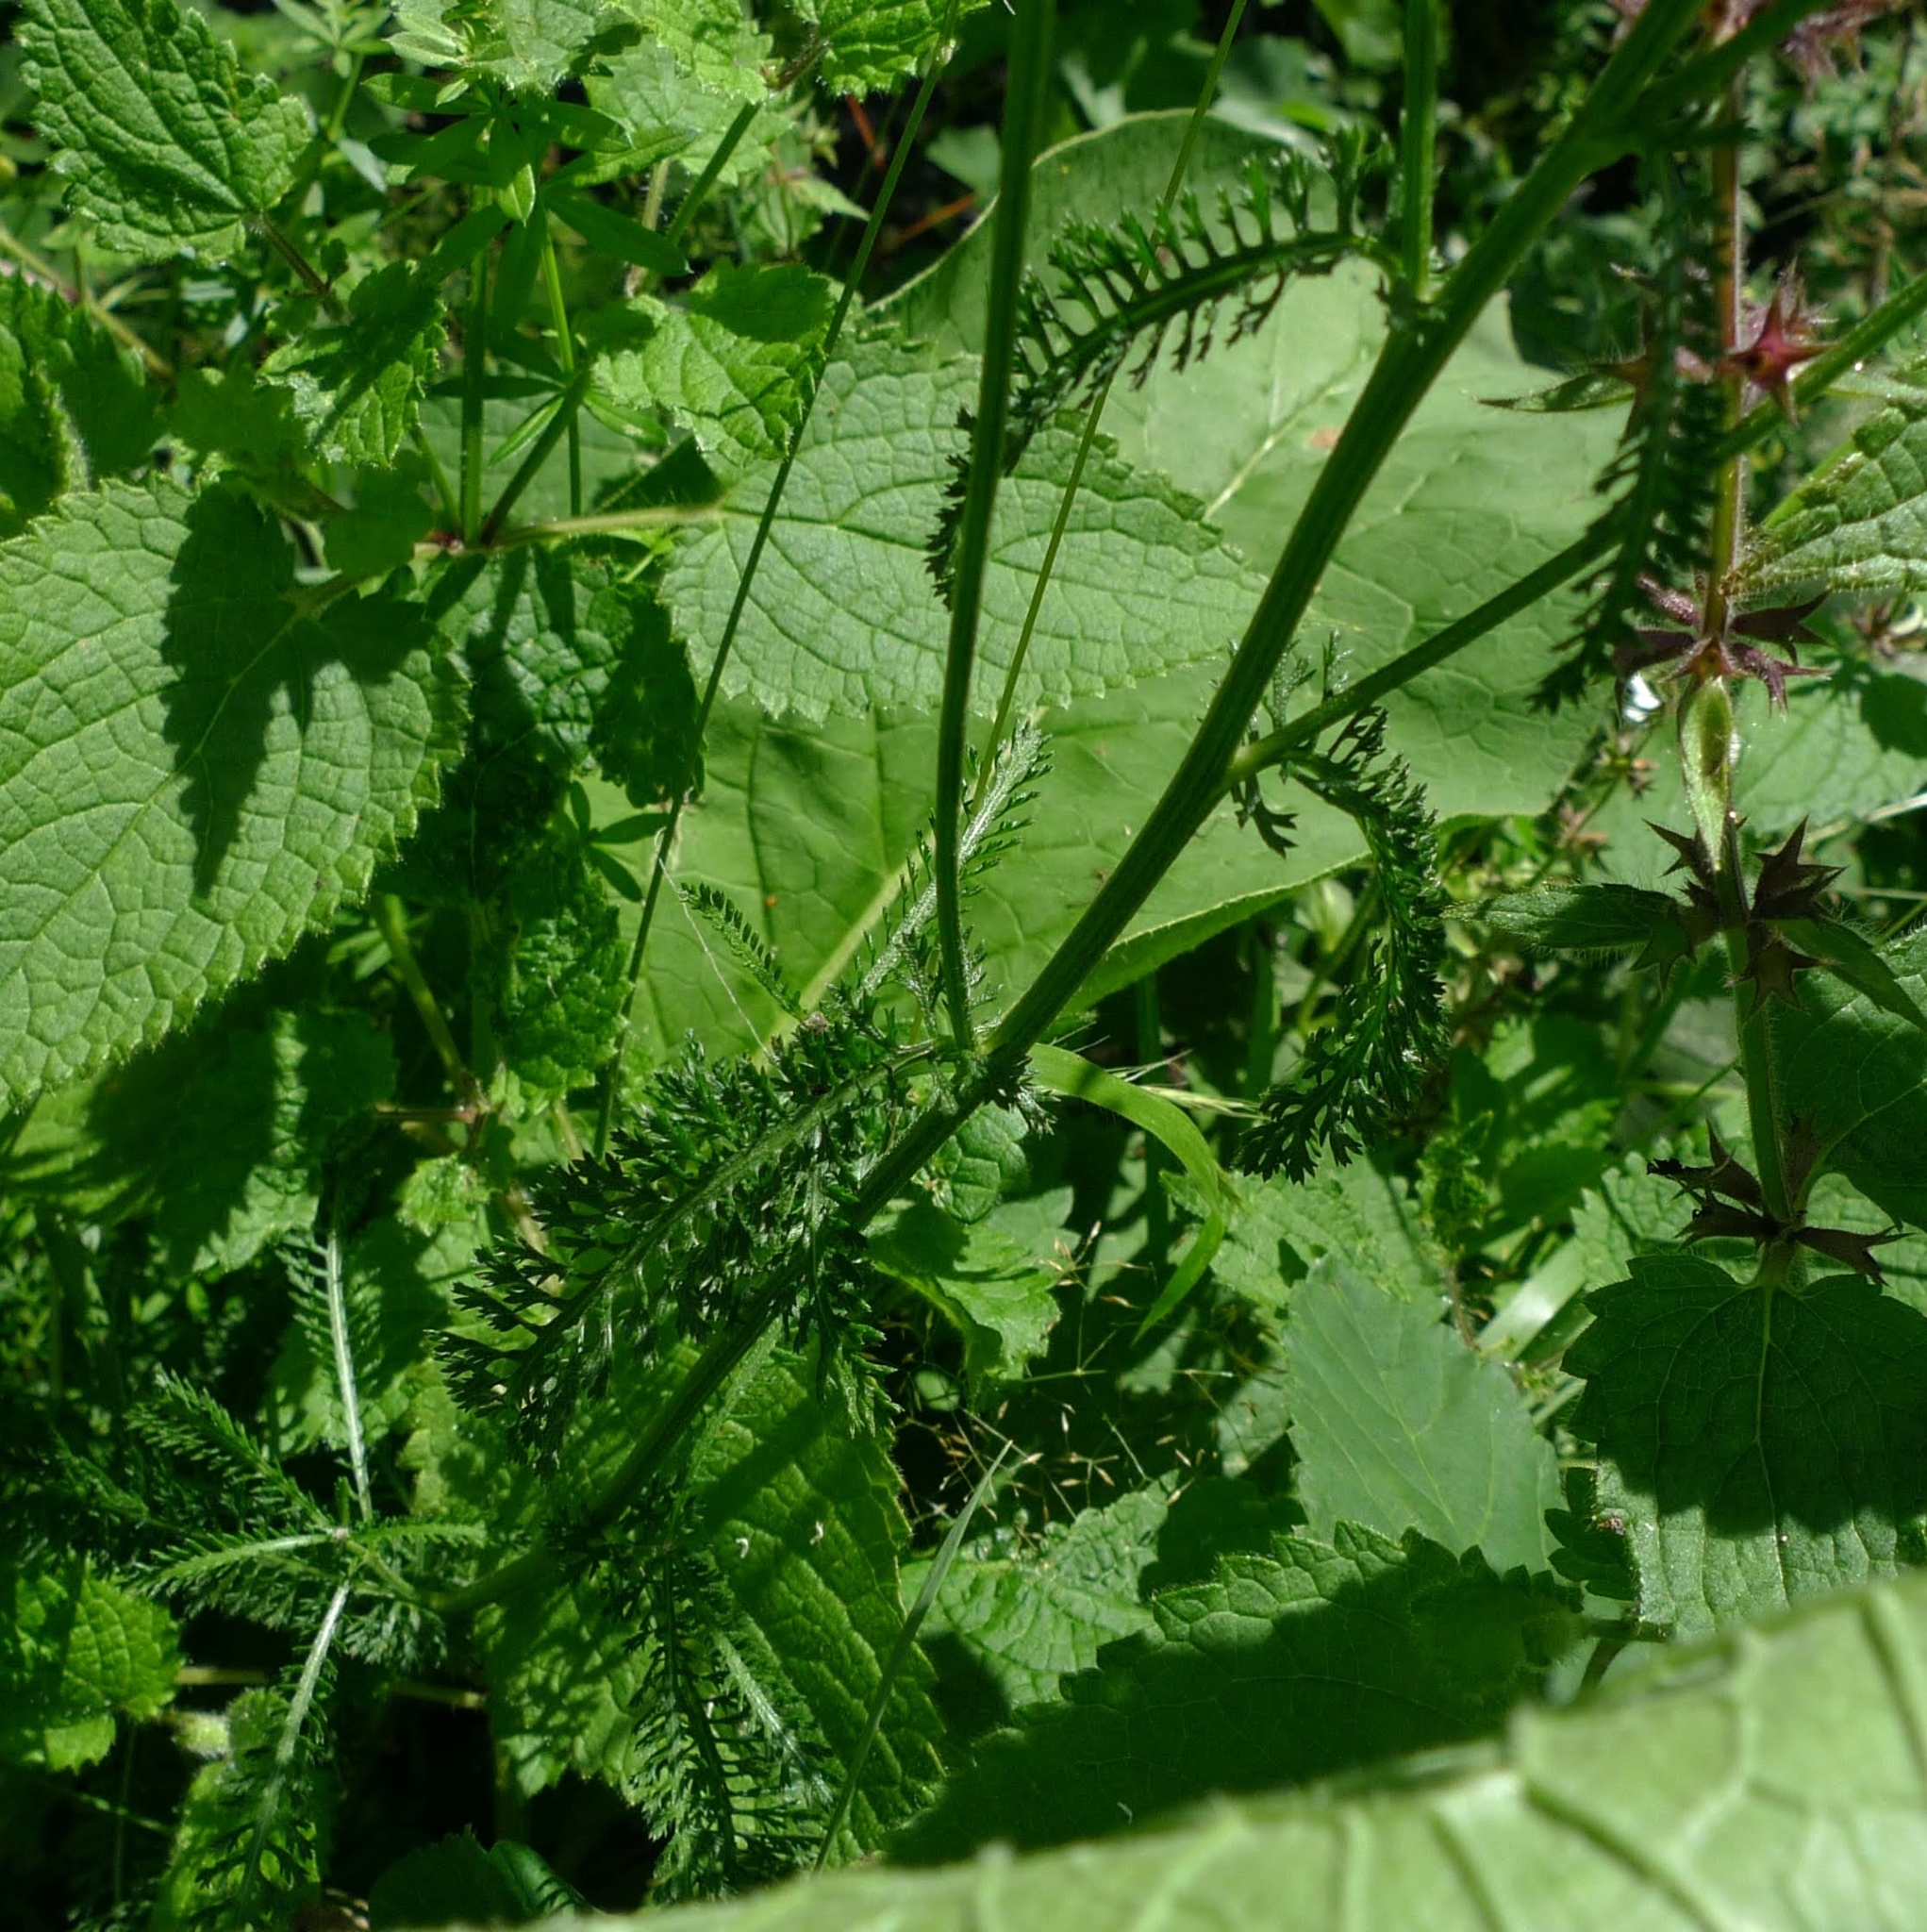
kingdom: Plantae
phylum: Tracheophyta
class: Magnoliopsida
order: Asterales
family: Asteraceae
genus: Achillea
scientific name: Achillea millefolium
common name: Yarrow
